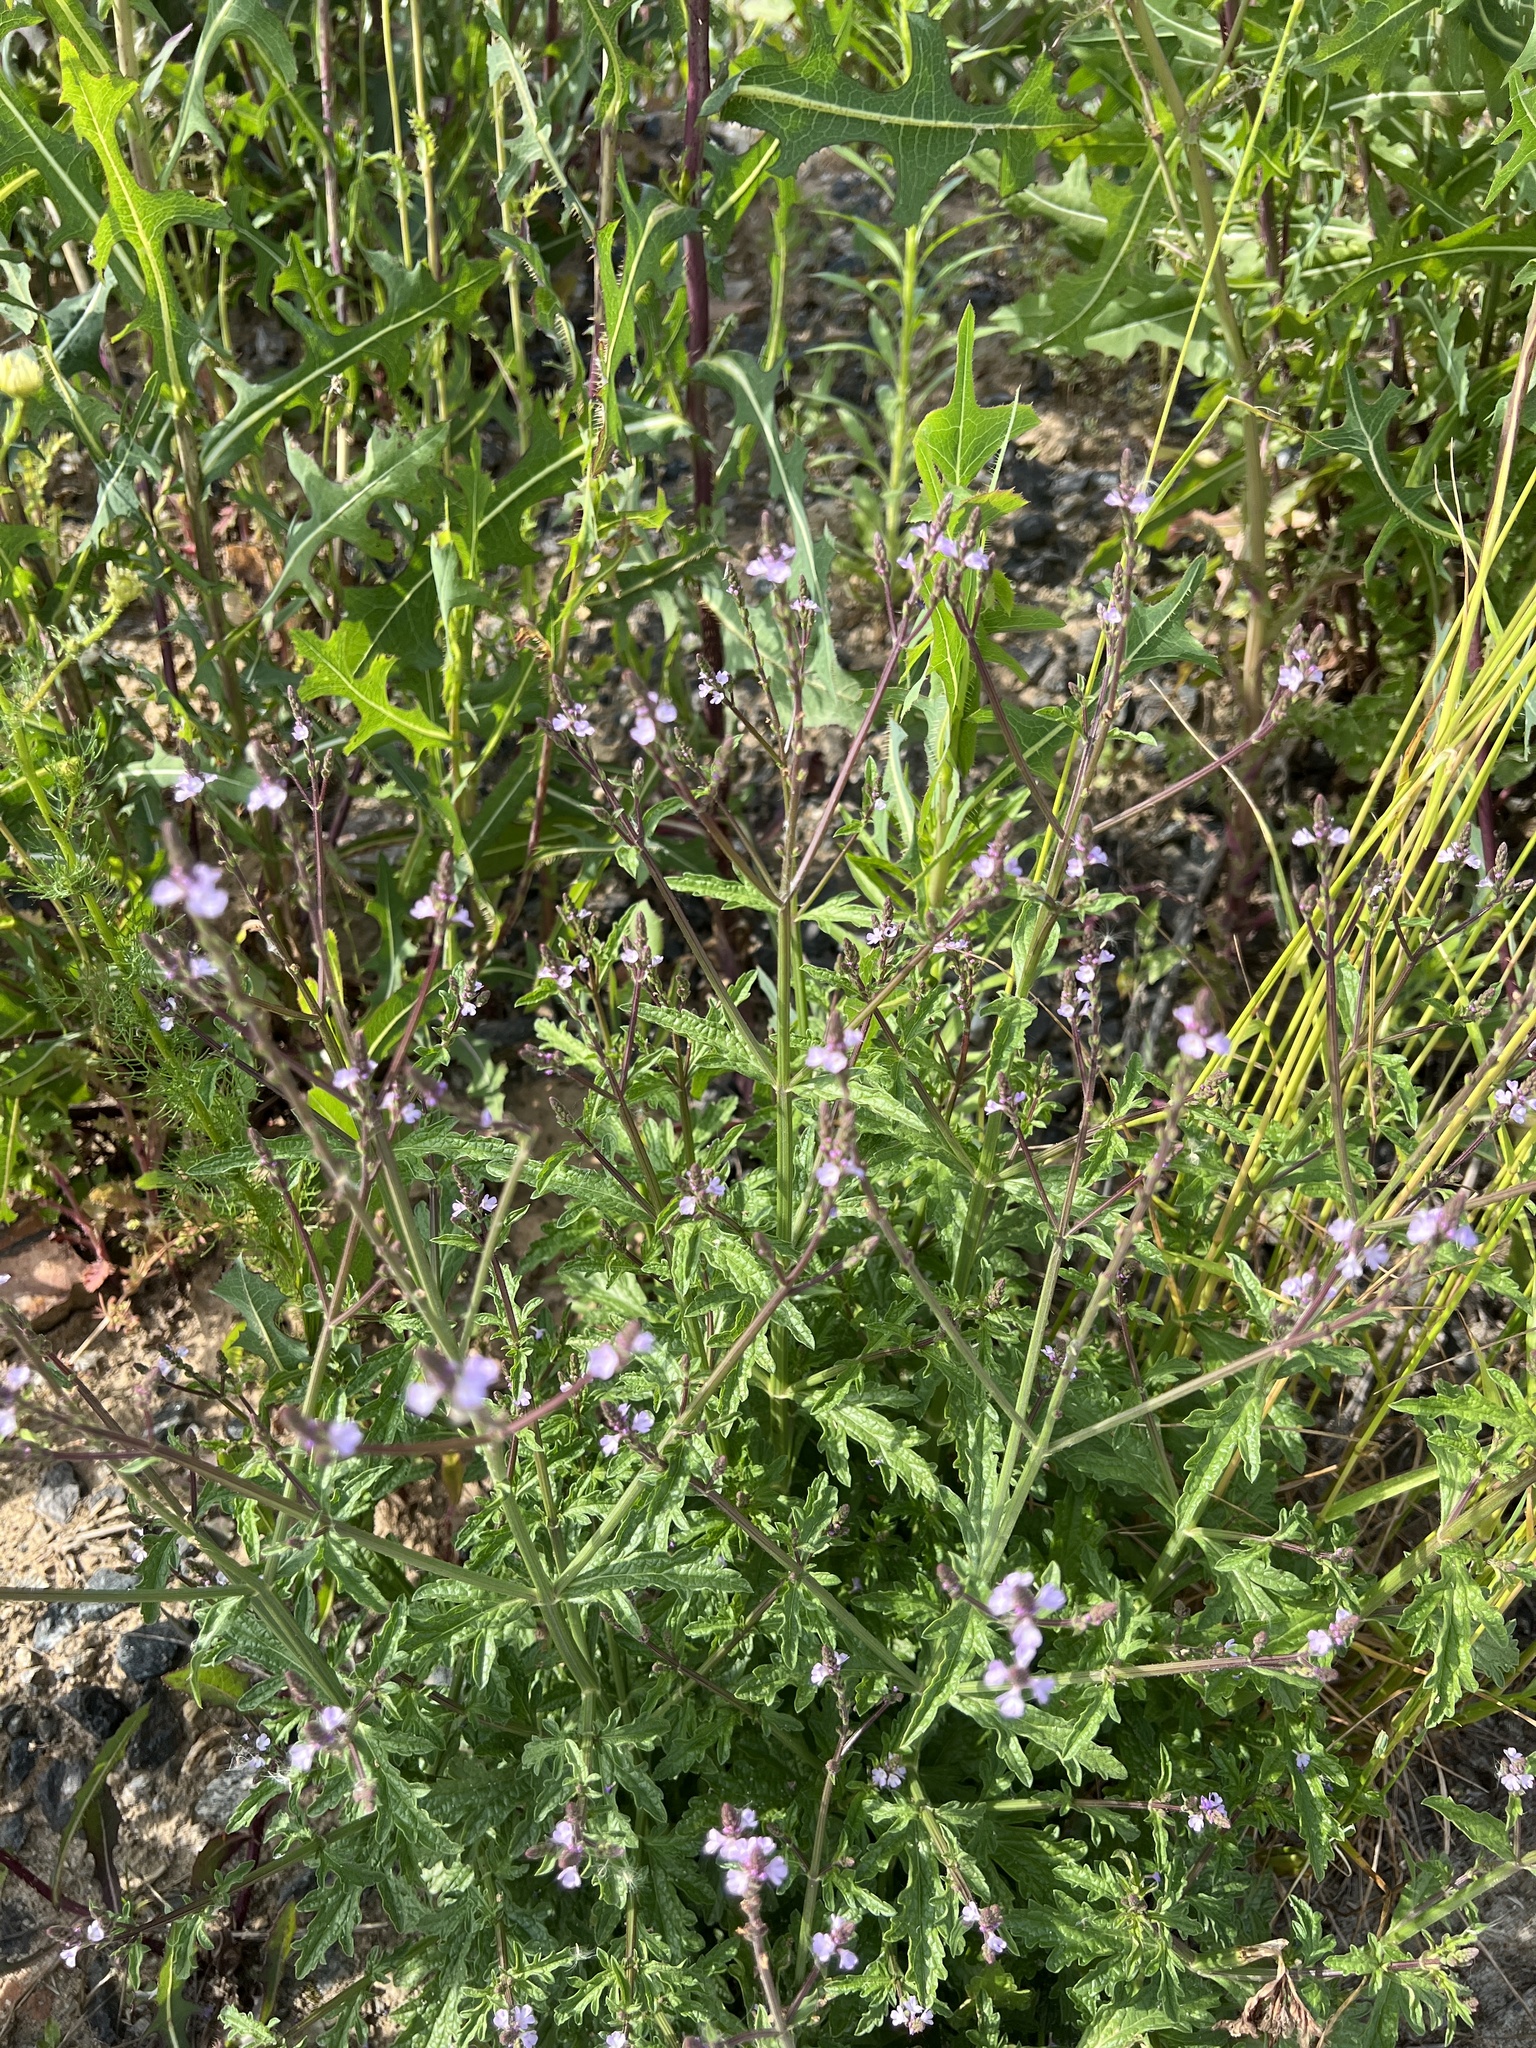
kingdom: Plantae
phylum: Tracheophyta
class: Magnoliopsida
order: Lamiales
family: Verbenaceae
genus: Verbena
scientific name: Verbena officinalis
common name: Vervain
